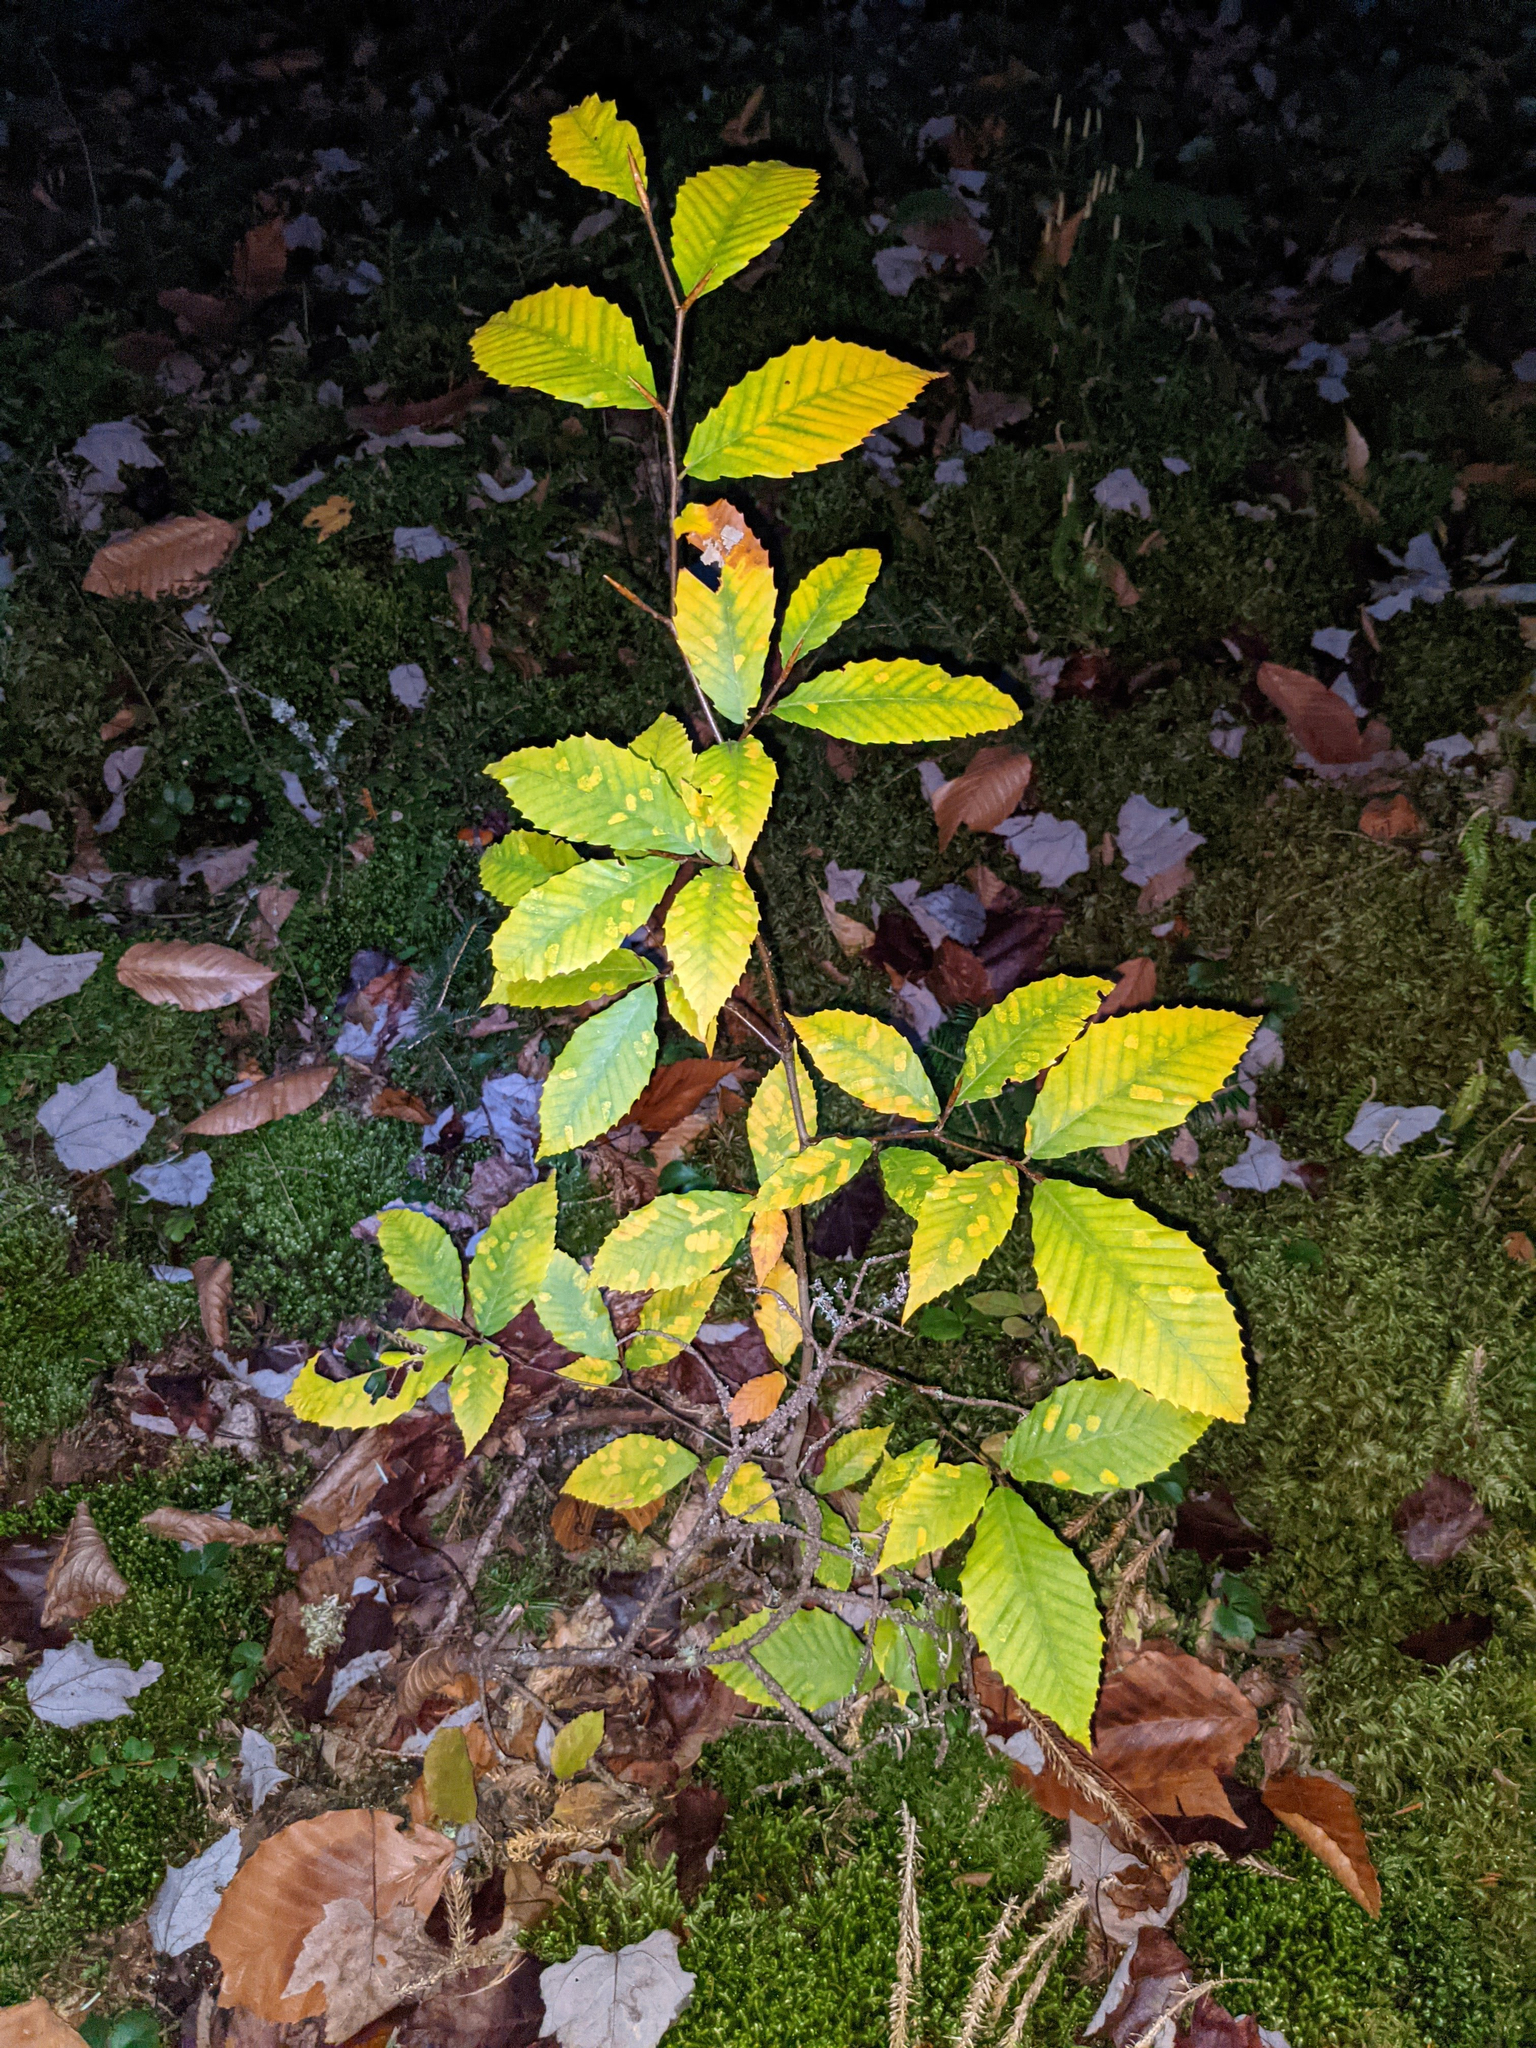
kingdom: Plantae
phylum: Tracheophyta
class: Magnoliopsida
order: Fagales
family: Fagaceae
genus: Fagus
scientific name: Fagus grandifolia
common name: American beech
